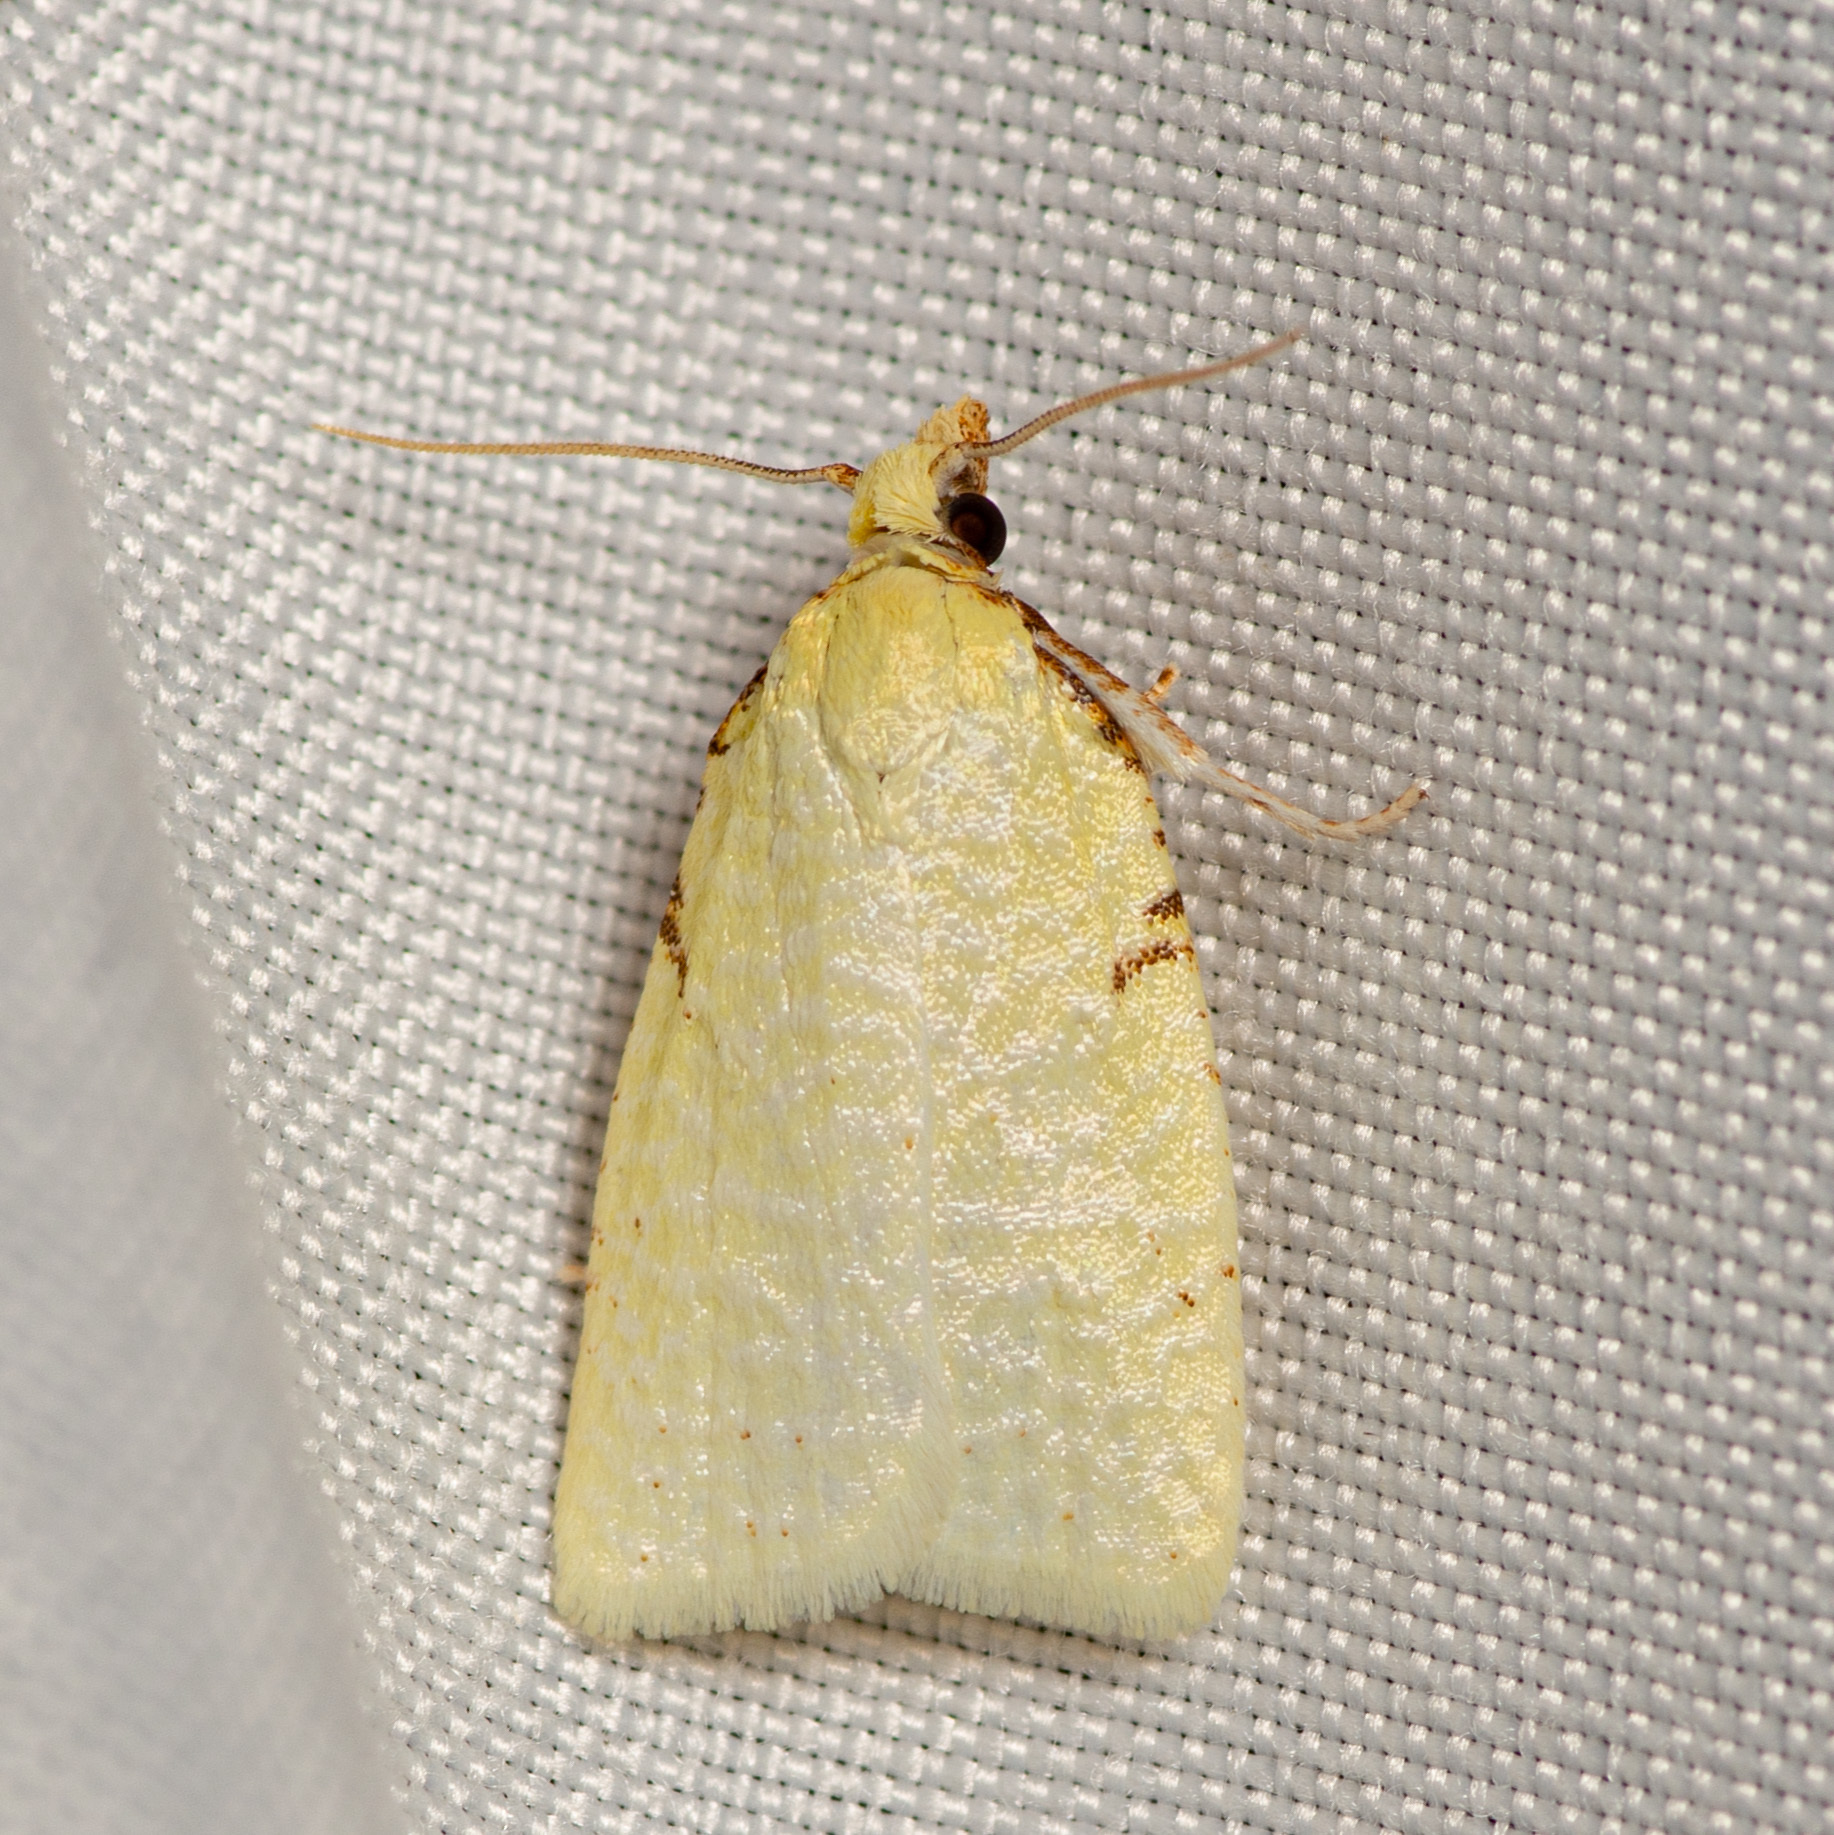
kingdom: Animalia
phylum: Arthropoda
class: Insecta
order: Lepidoptera
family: Tortricidae
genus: Cenopis
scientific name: Cenopis pettitana
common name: Maple-basswood leafroller moth
